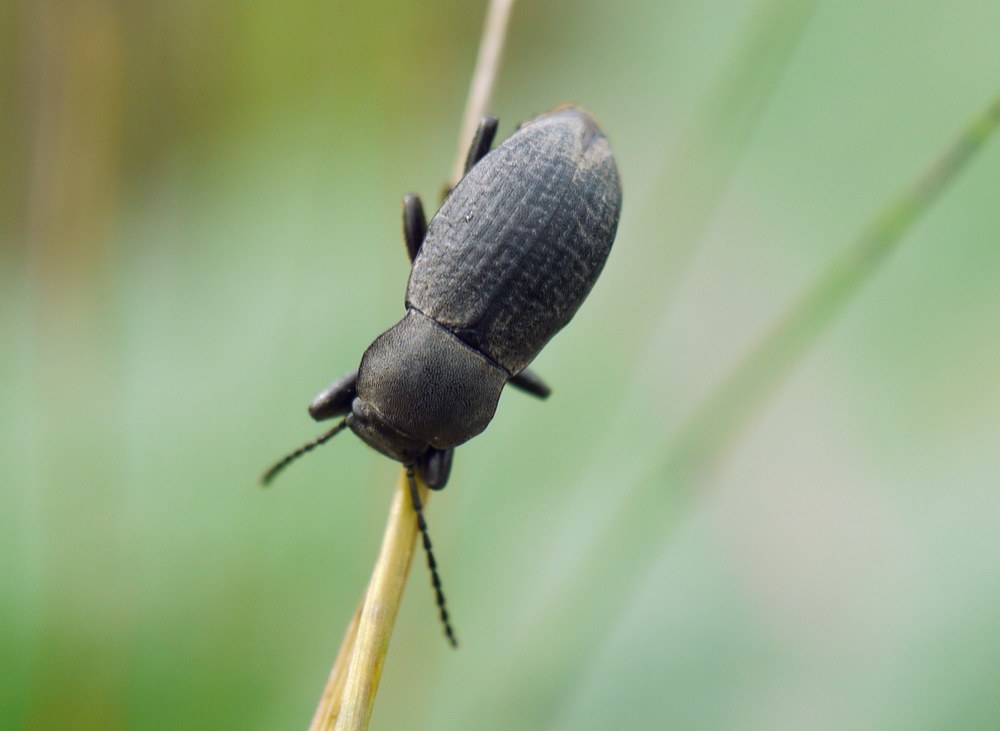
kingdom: Animalia
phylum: Arthropoda
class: Insecta
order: Coleoptera
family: Tenebrionidae
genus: Euboeus
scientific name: Euboeus
